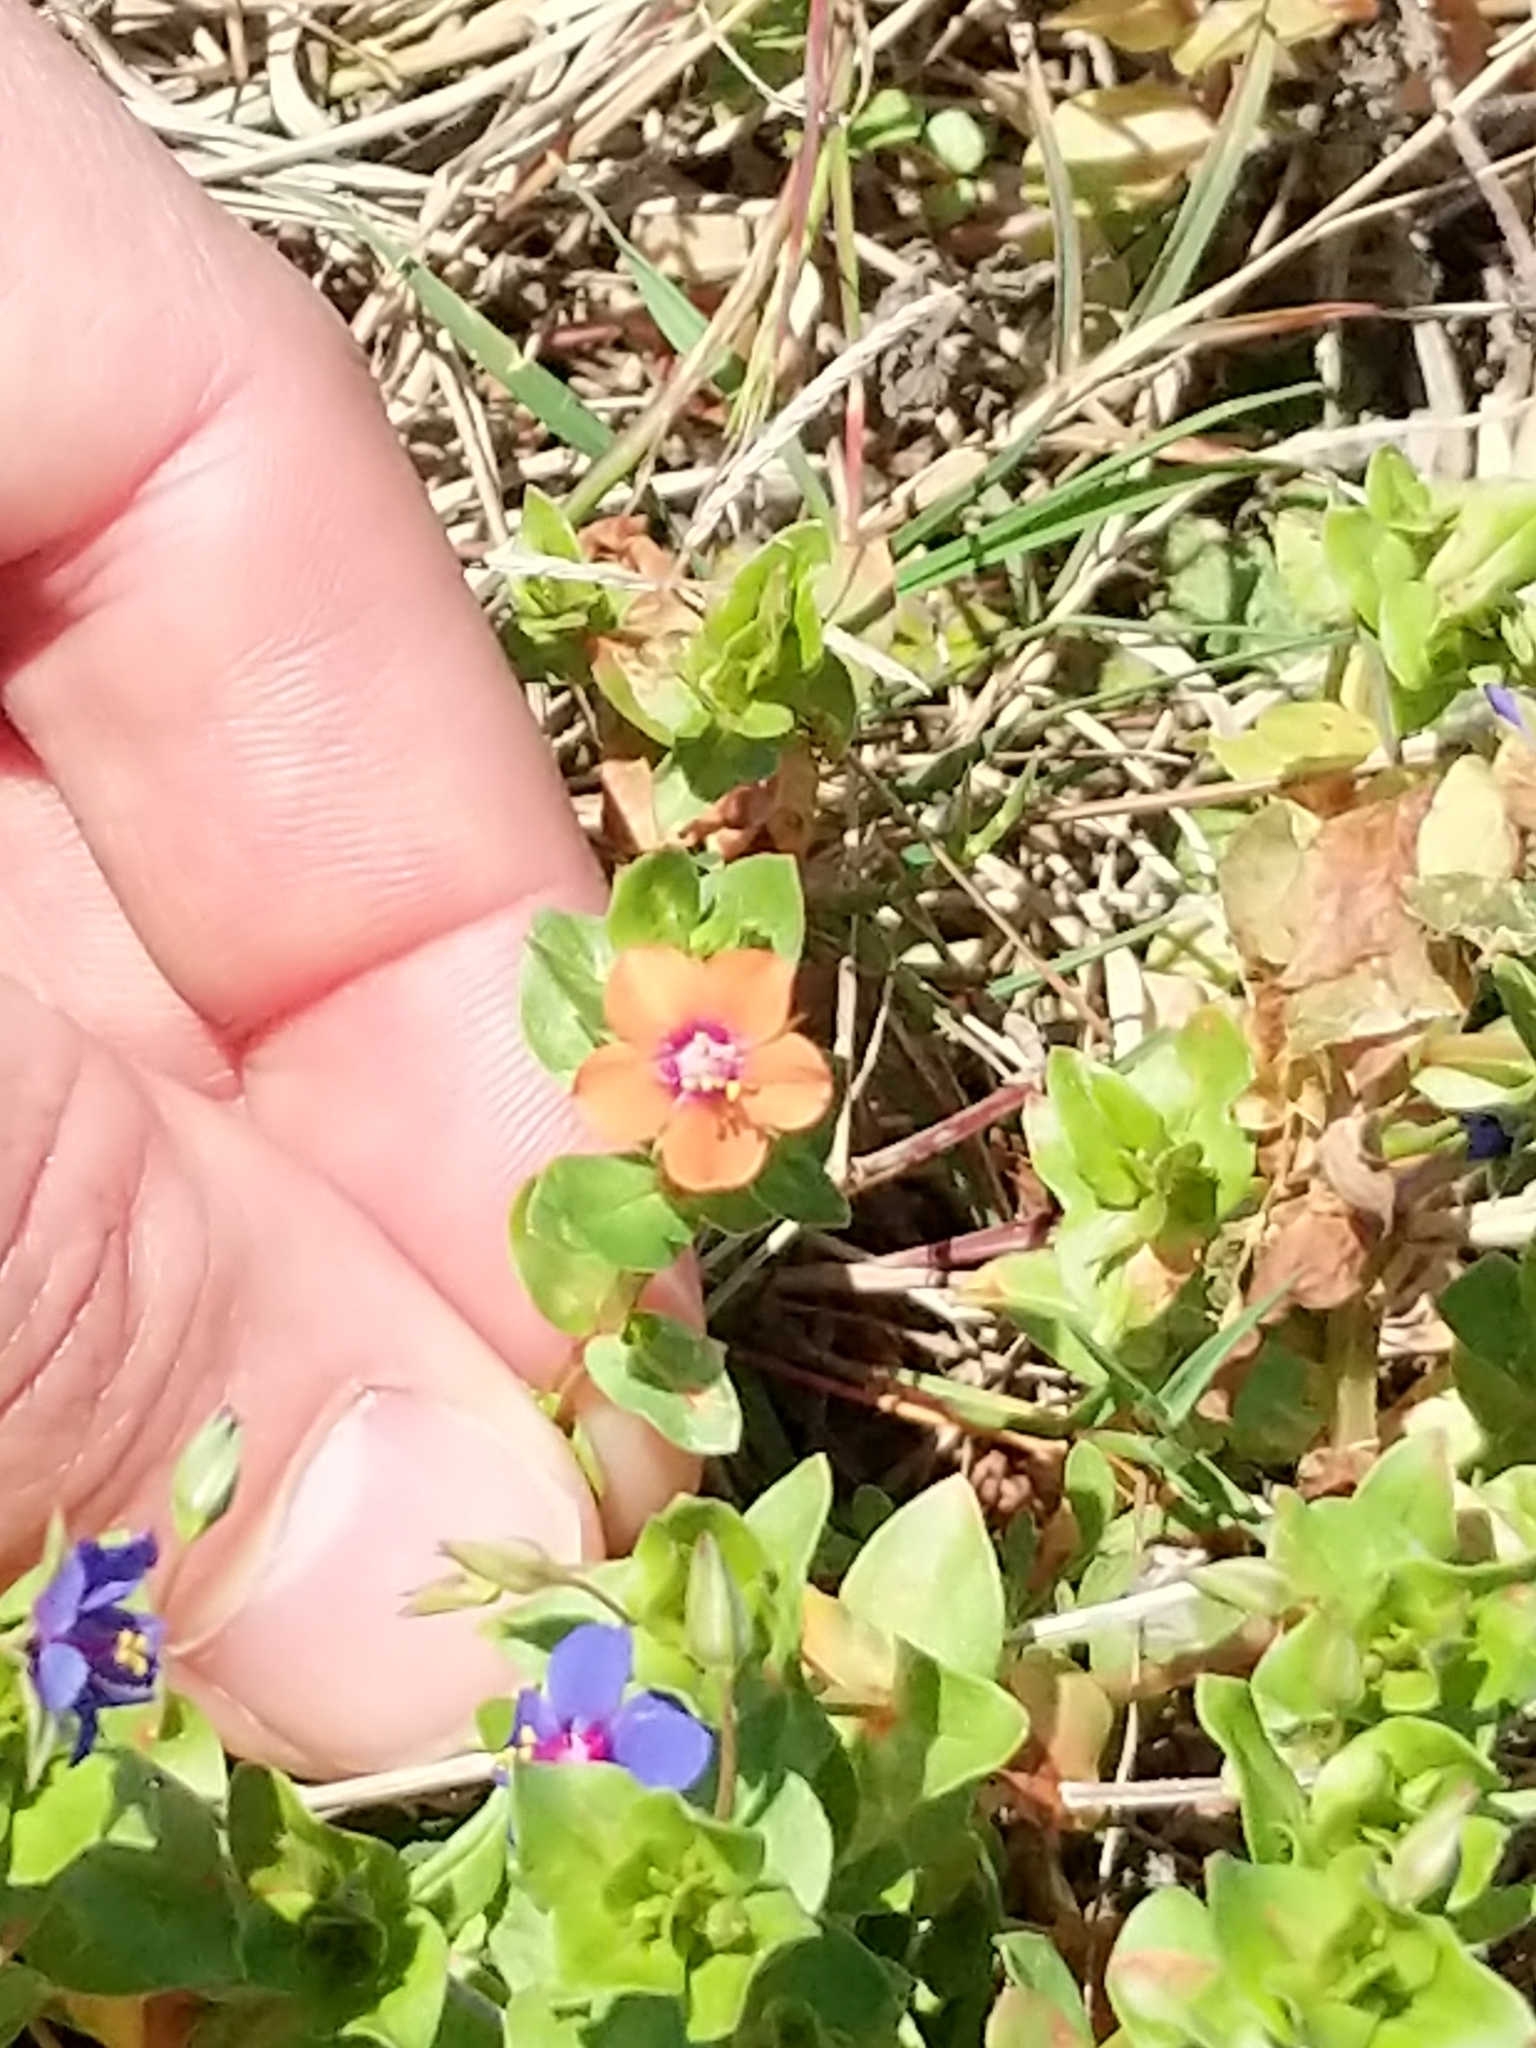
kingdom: Plantae
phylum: Tracheophyta
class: Magnoliopsida
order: Ericales
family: Primulaceae
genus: Lysimachia
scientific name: Lysimachia arvensis
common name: Scarlet pimpernel
